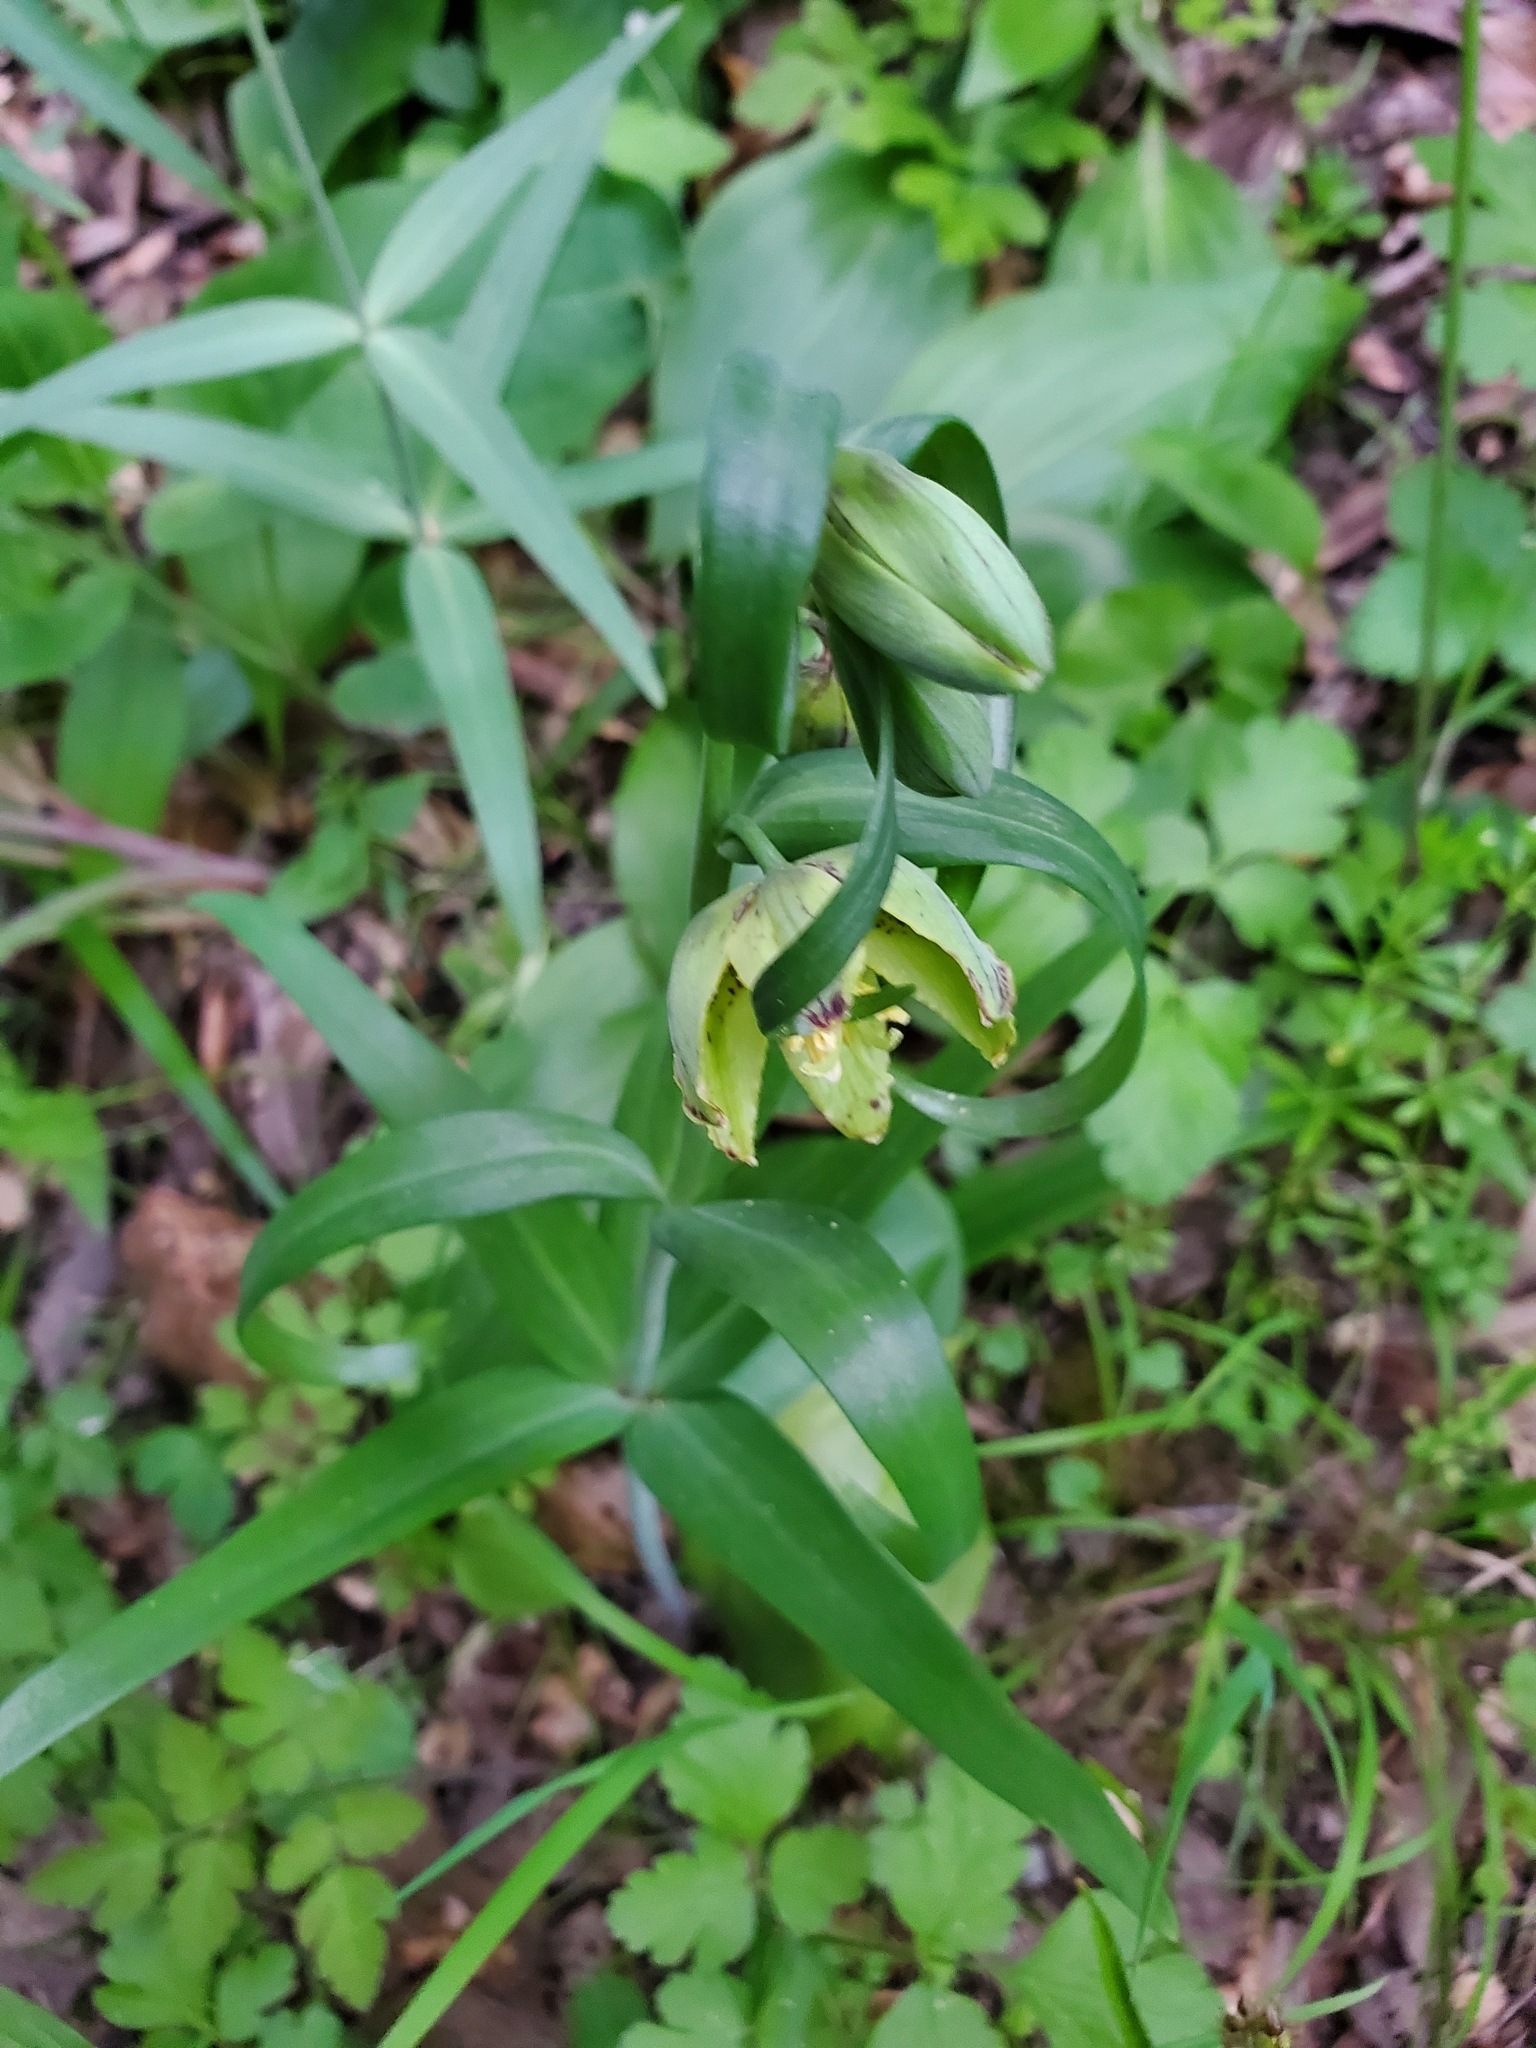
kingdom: Plantae
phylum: Tracheophyta
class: Liliopsida
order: Liliales
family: Liliaceae
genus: Fritillaria
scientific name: Fritillaria affinis
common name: Ojai fritillary
